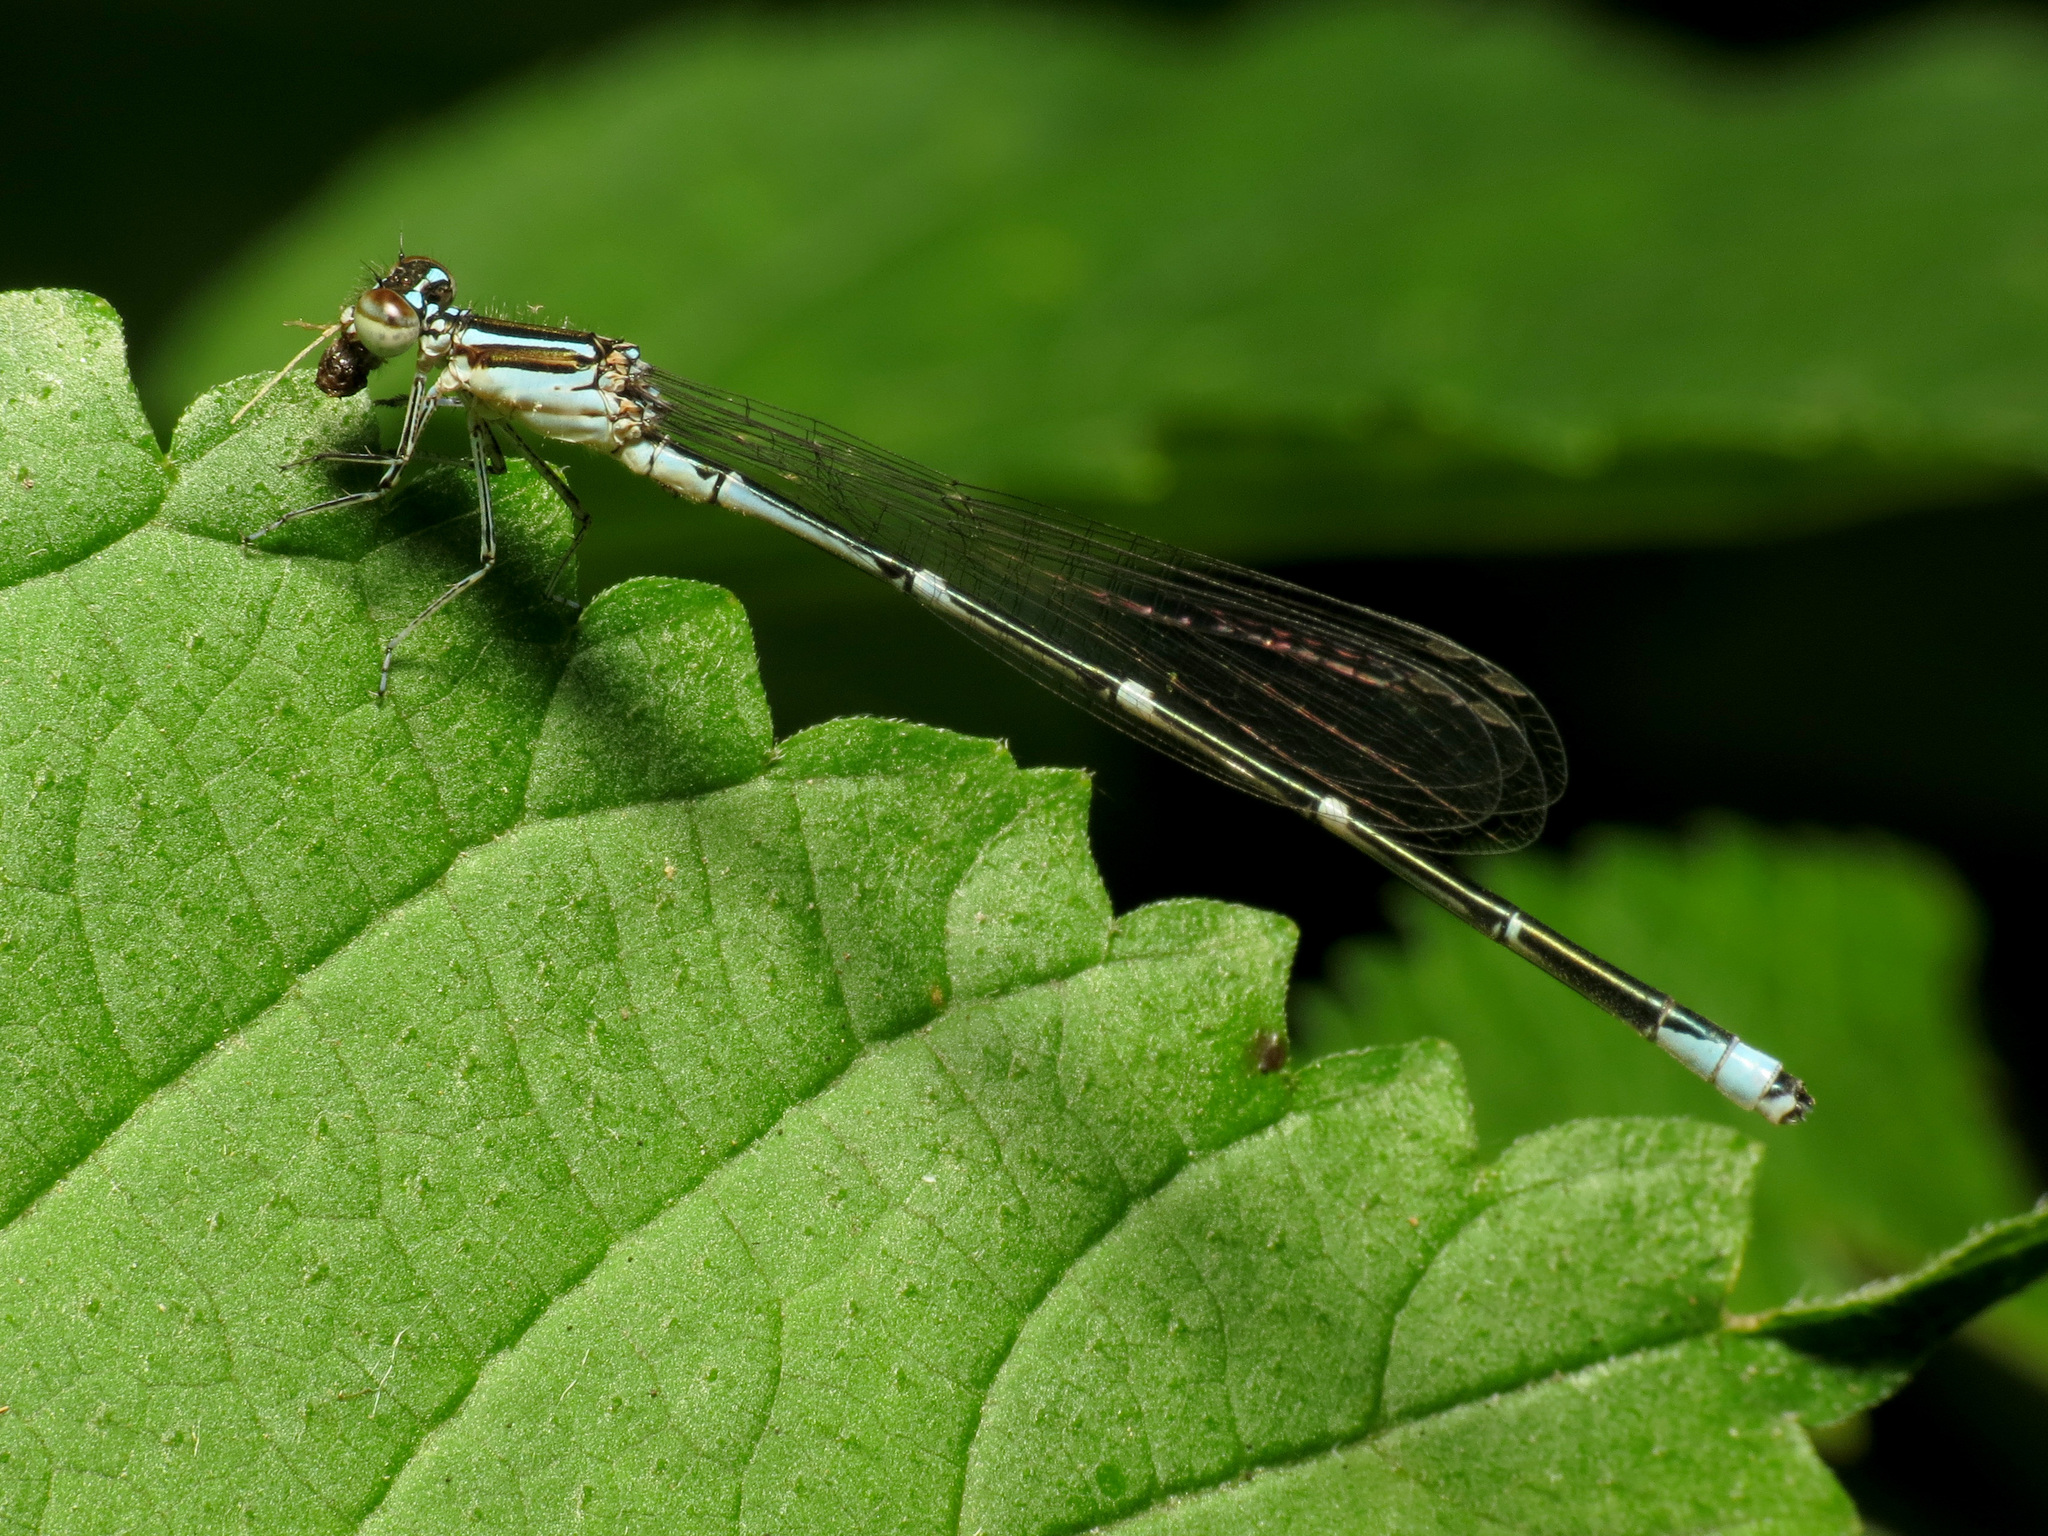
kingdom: Animalia
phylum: Arthropoda
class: Insecta
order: Odonata
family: Coenagrionidae
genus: Enallagma
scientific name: Enallagma exsulans
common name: Stream bluet
